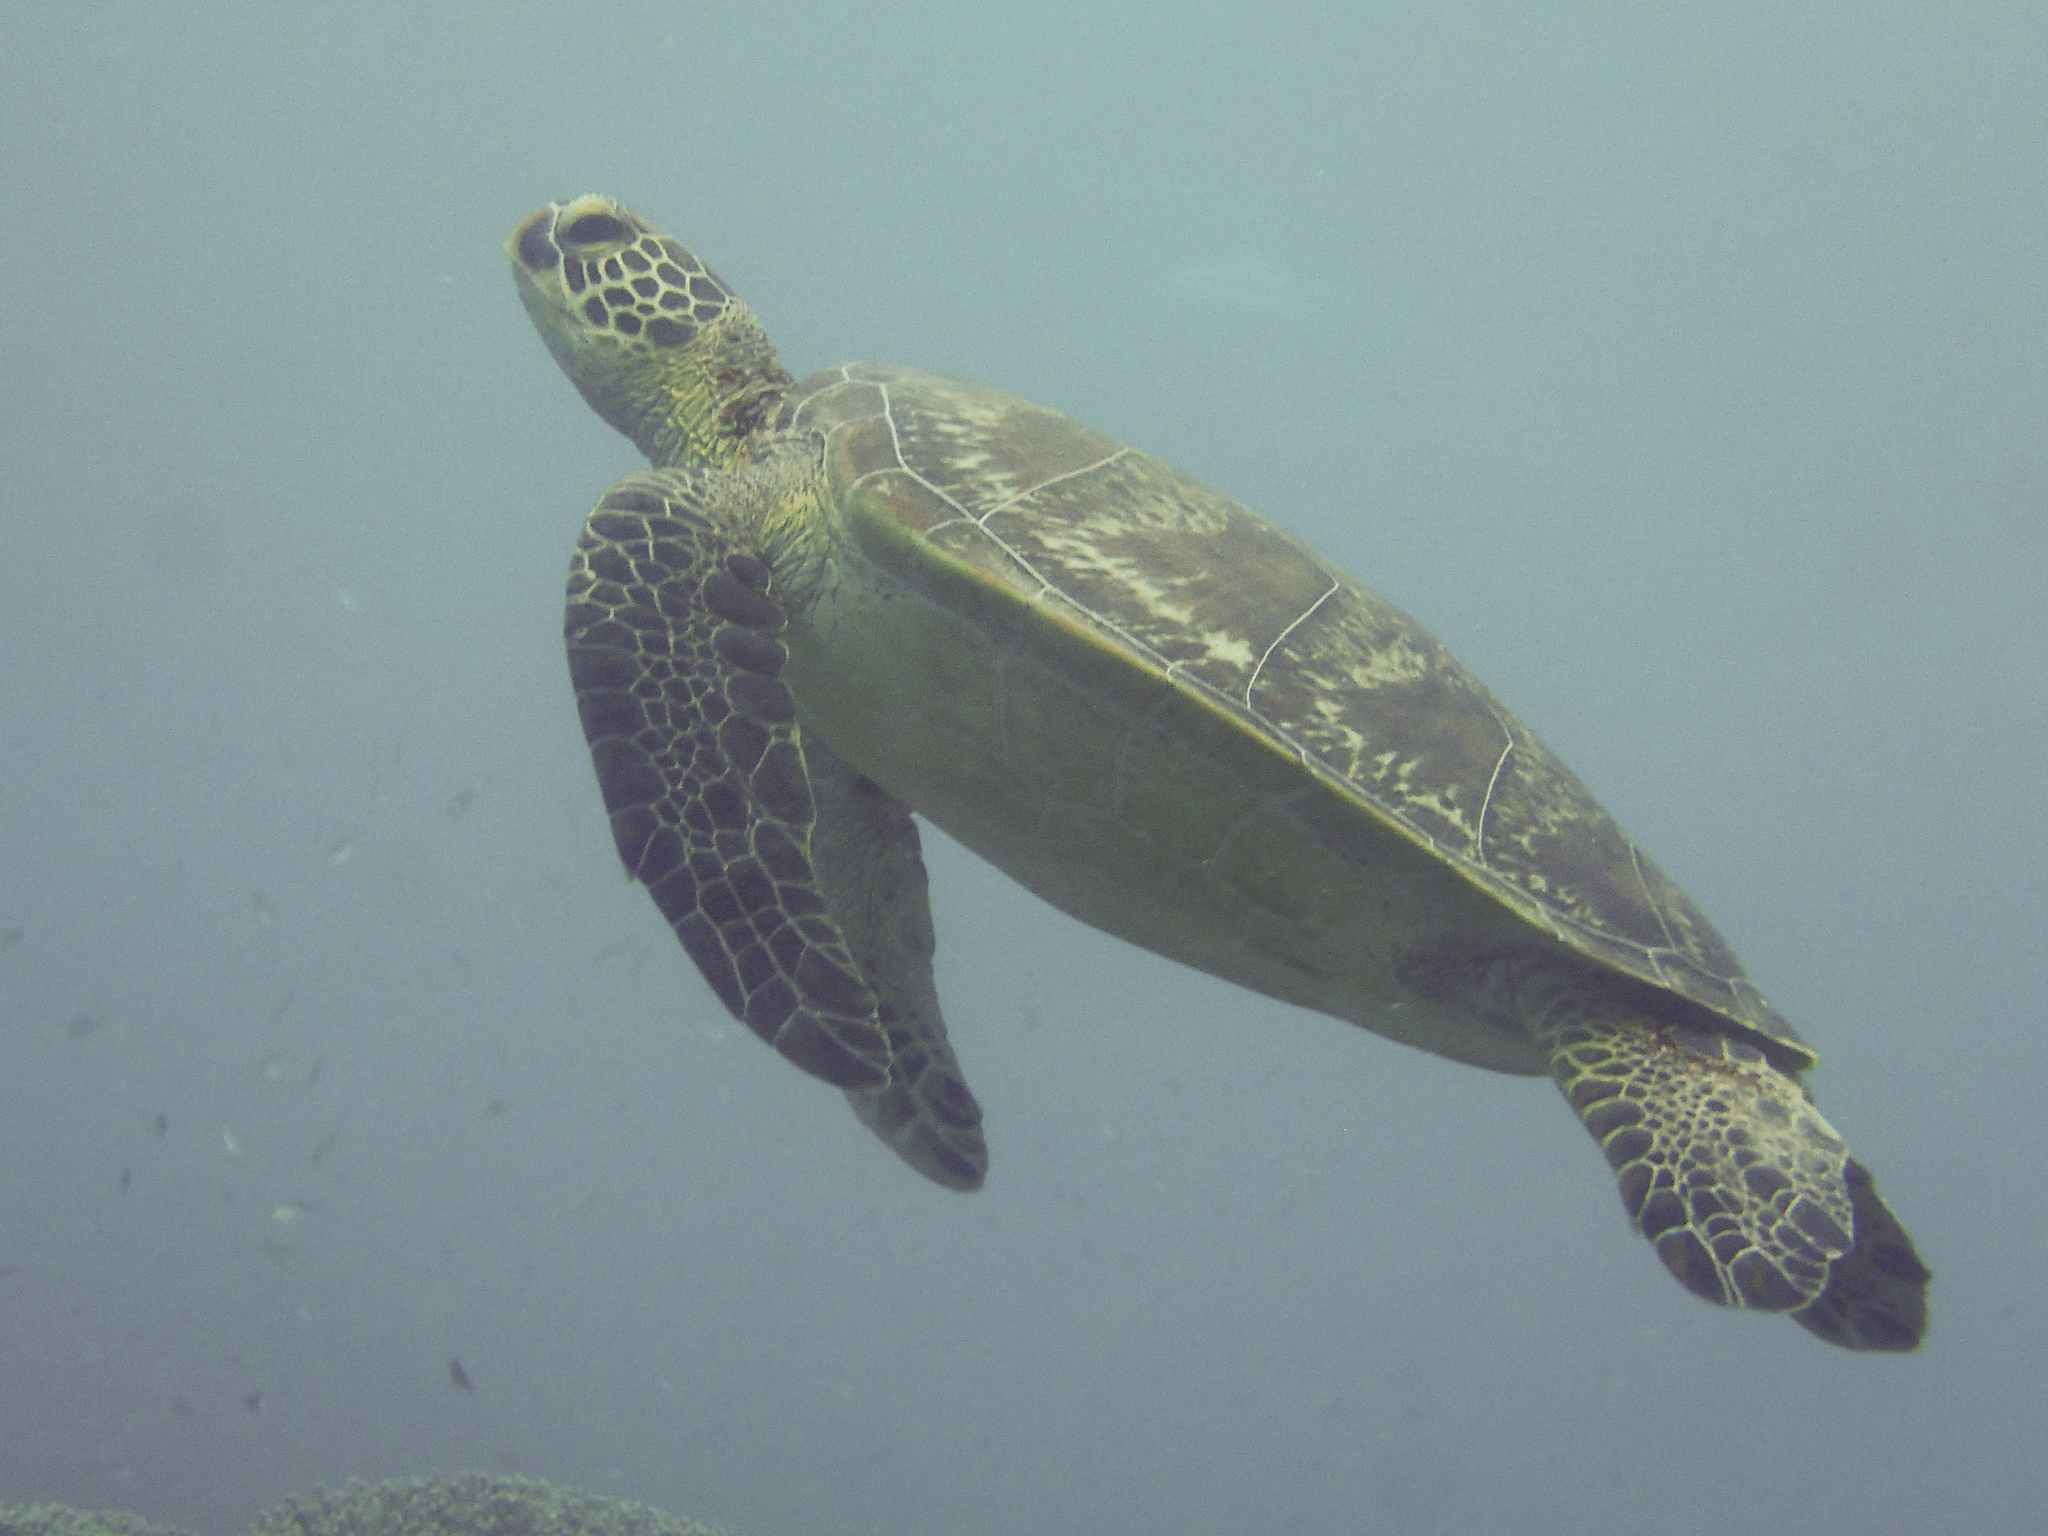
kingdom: Animalia
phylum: Chordata
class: Testudines
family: Cheloniidae
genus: Chelonia
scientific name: Chelonia mydas
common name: Green turtle
